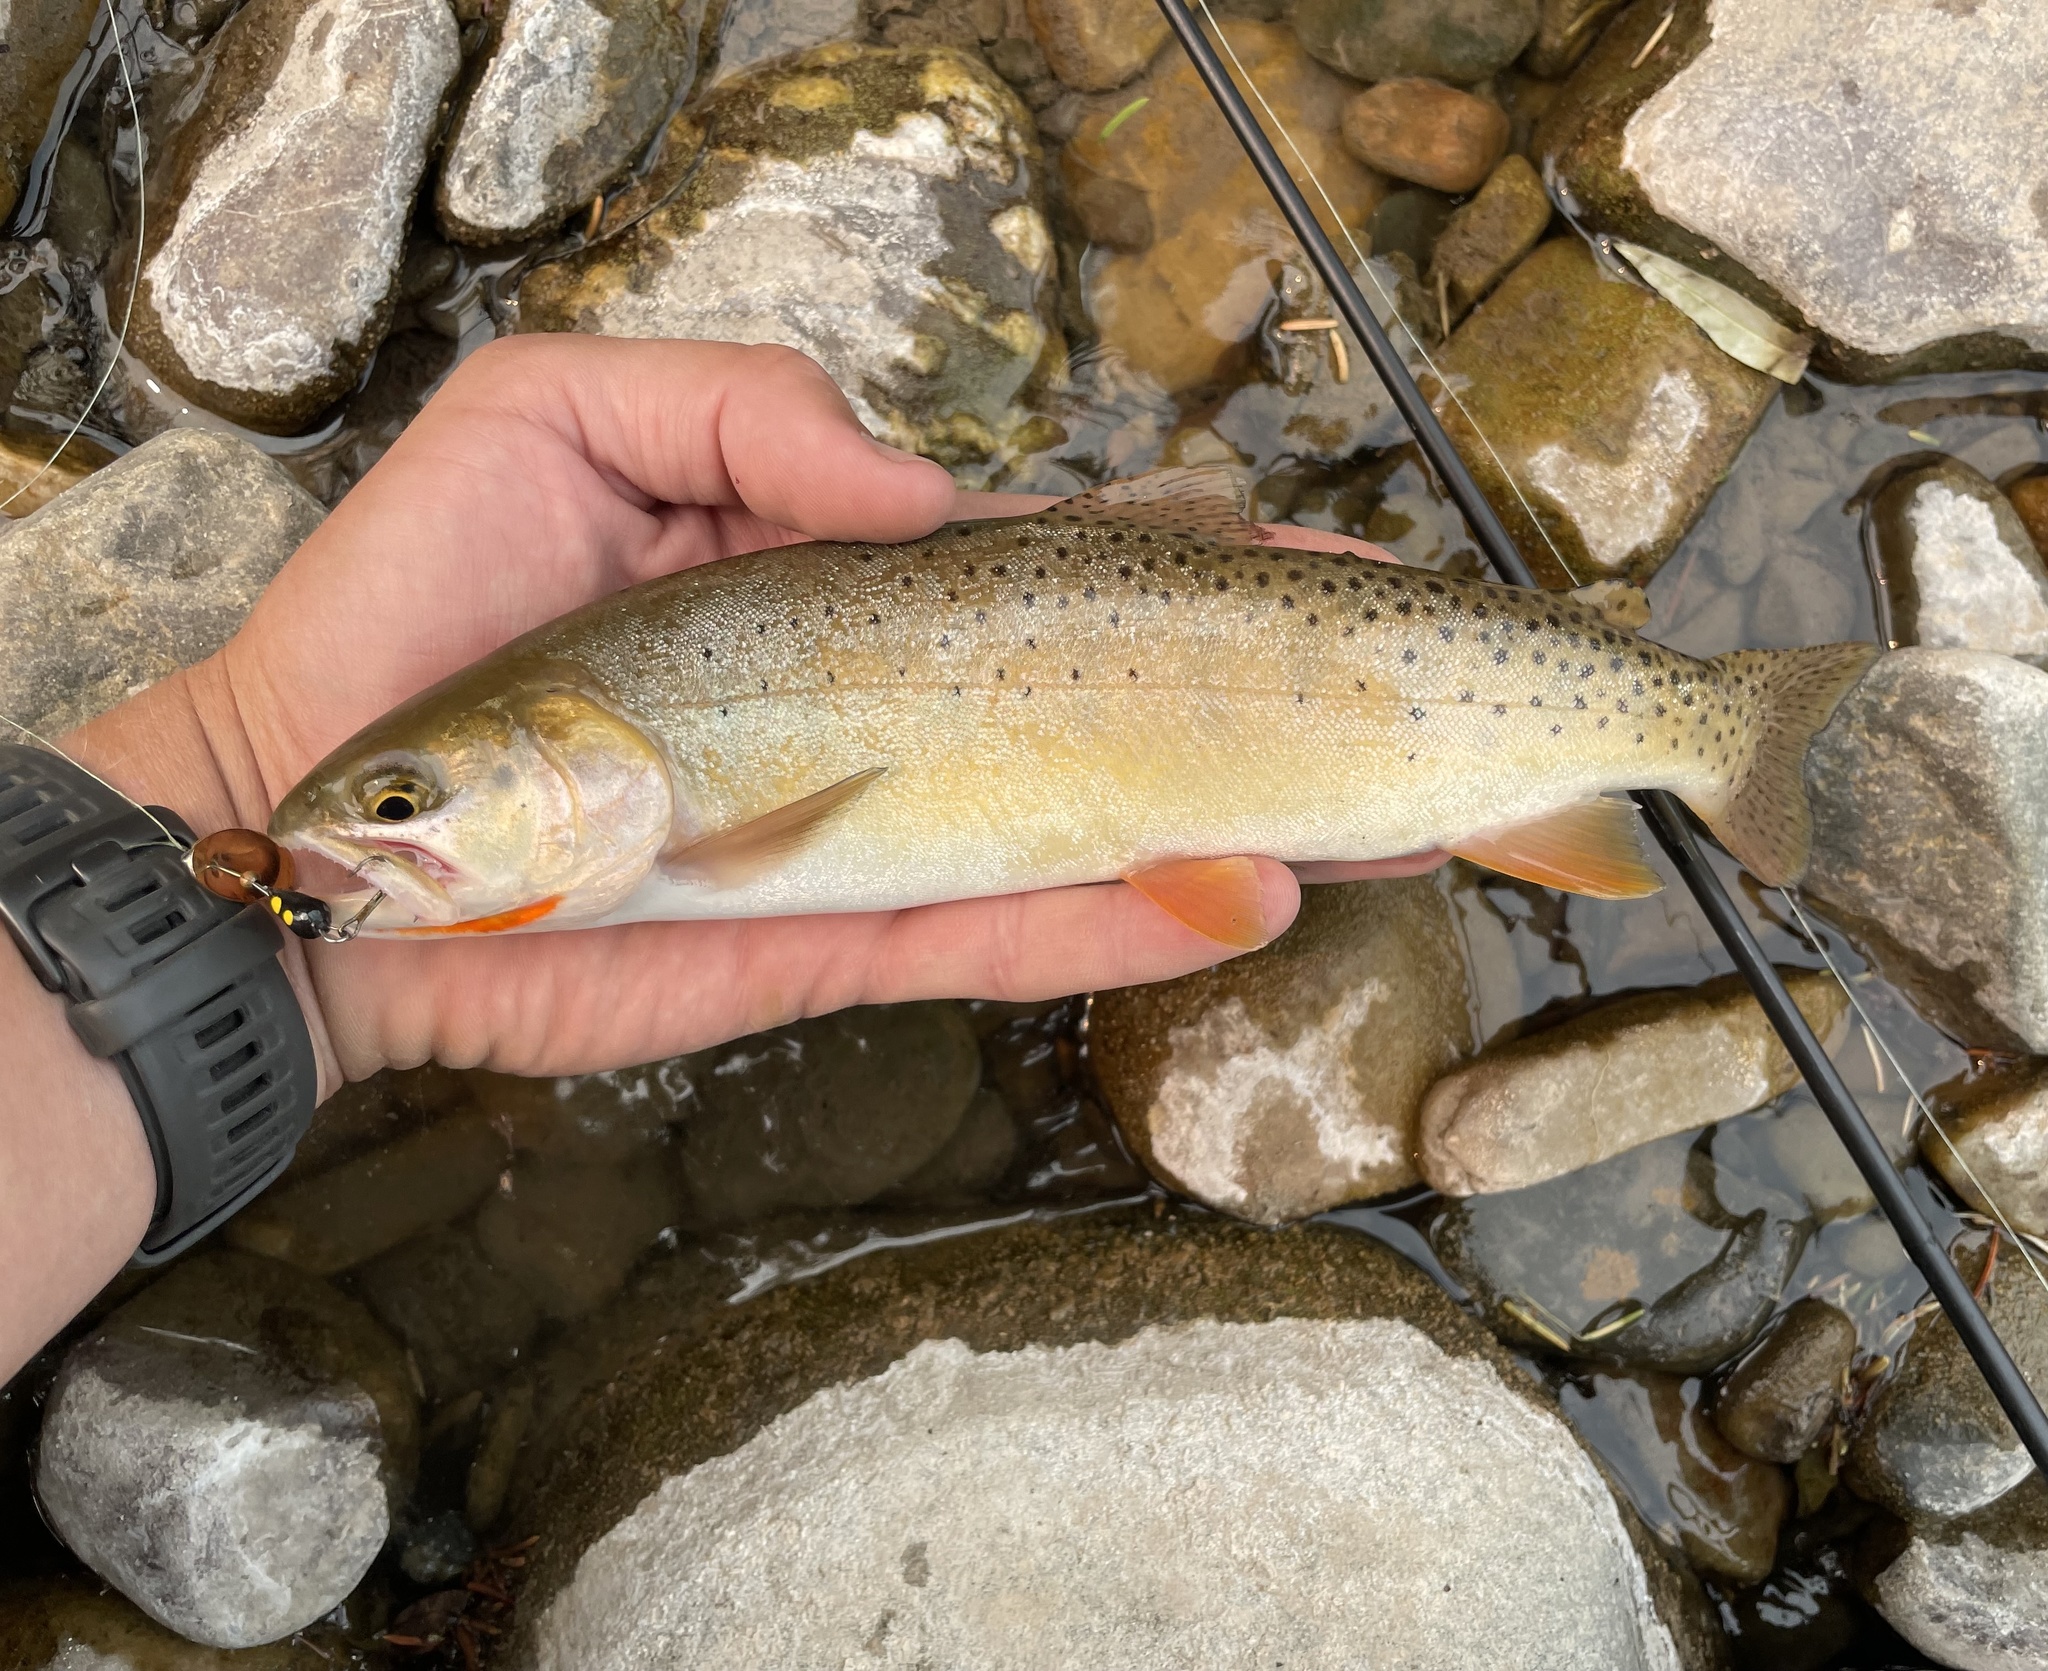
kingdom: Animalia
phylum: Chordata
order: Salmoniformes
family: Salmonidae
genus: Oncorhynchus
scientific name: Oncorhynchus virginalis
